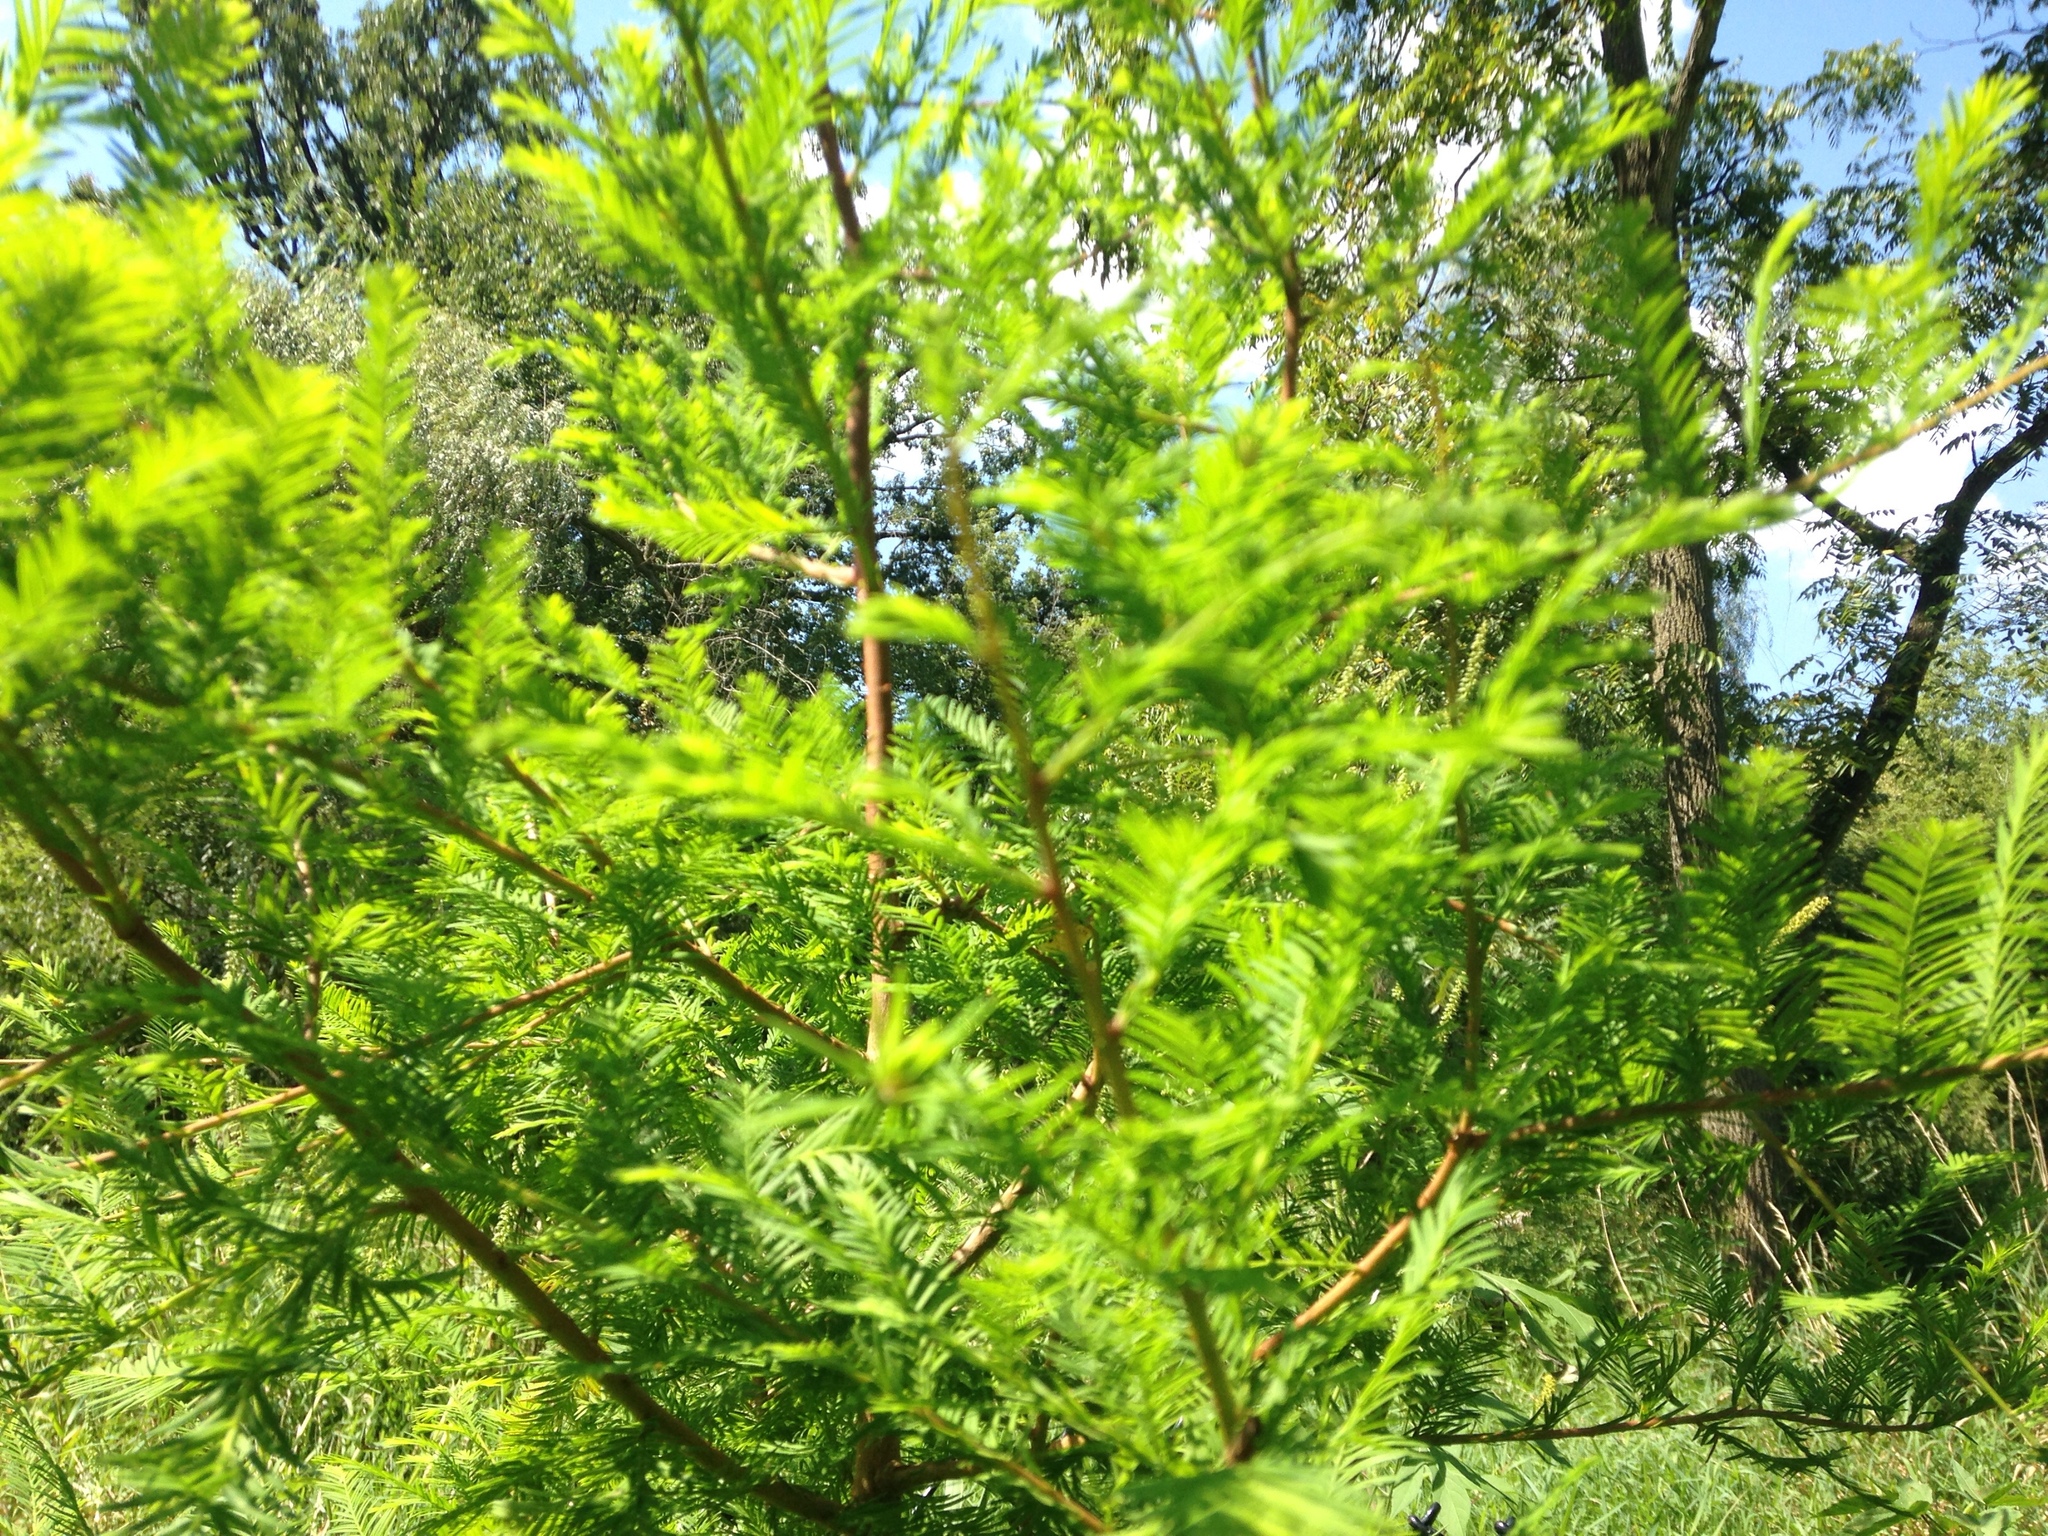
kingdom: Plantae
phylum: Tracheophyta
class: Pinopsida
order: Pinales
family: Cupressaceae
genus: Taxodium
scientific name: Taxodium distichum
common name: Bald cypress
